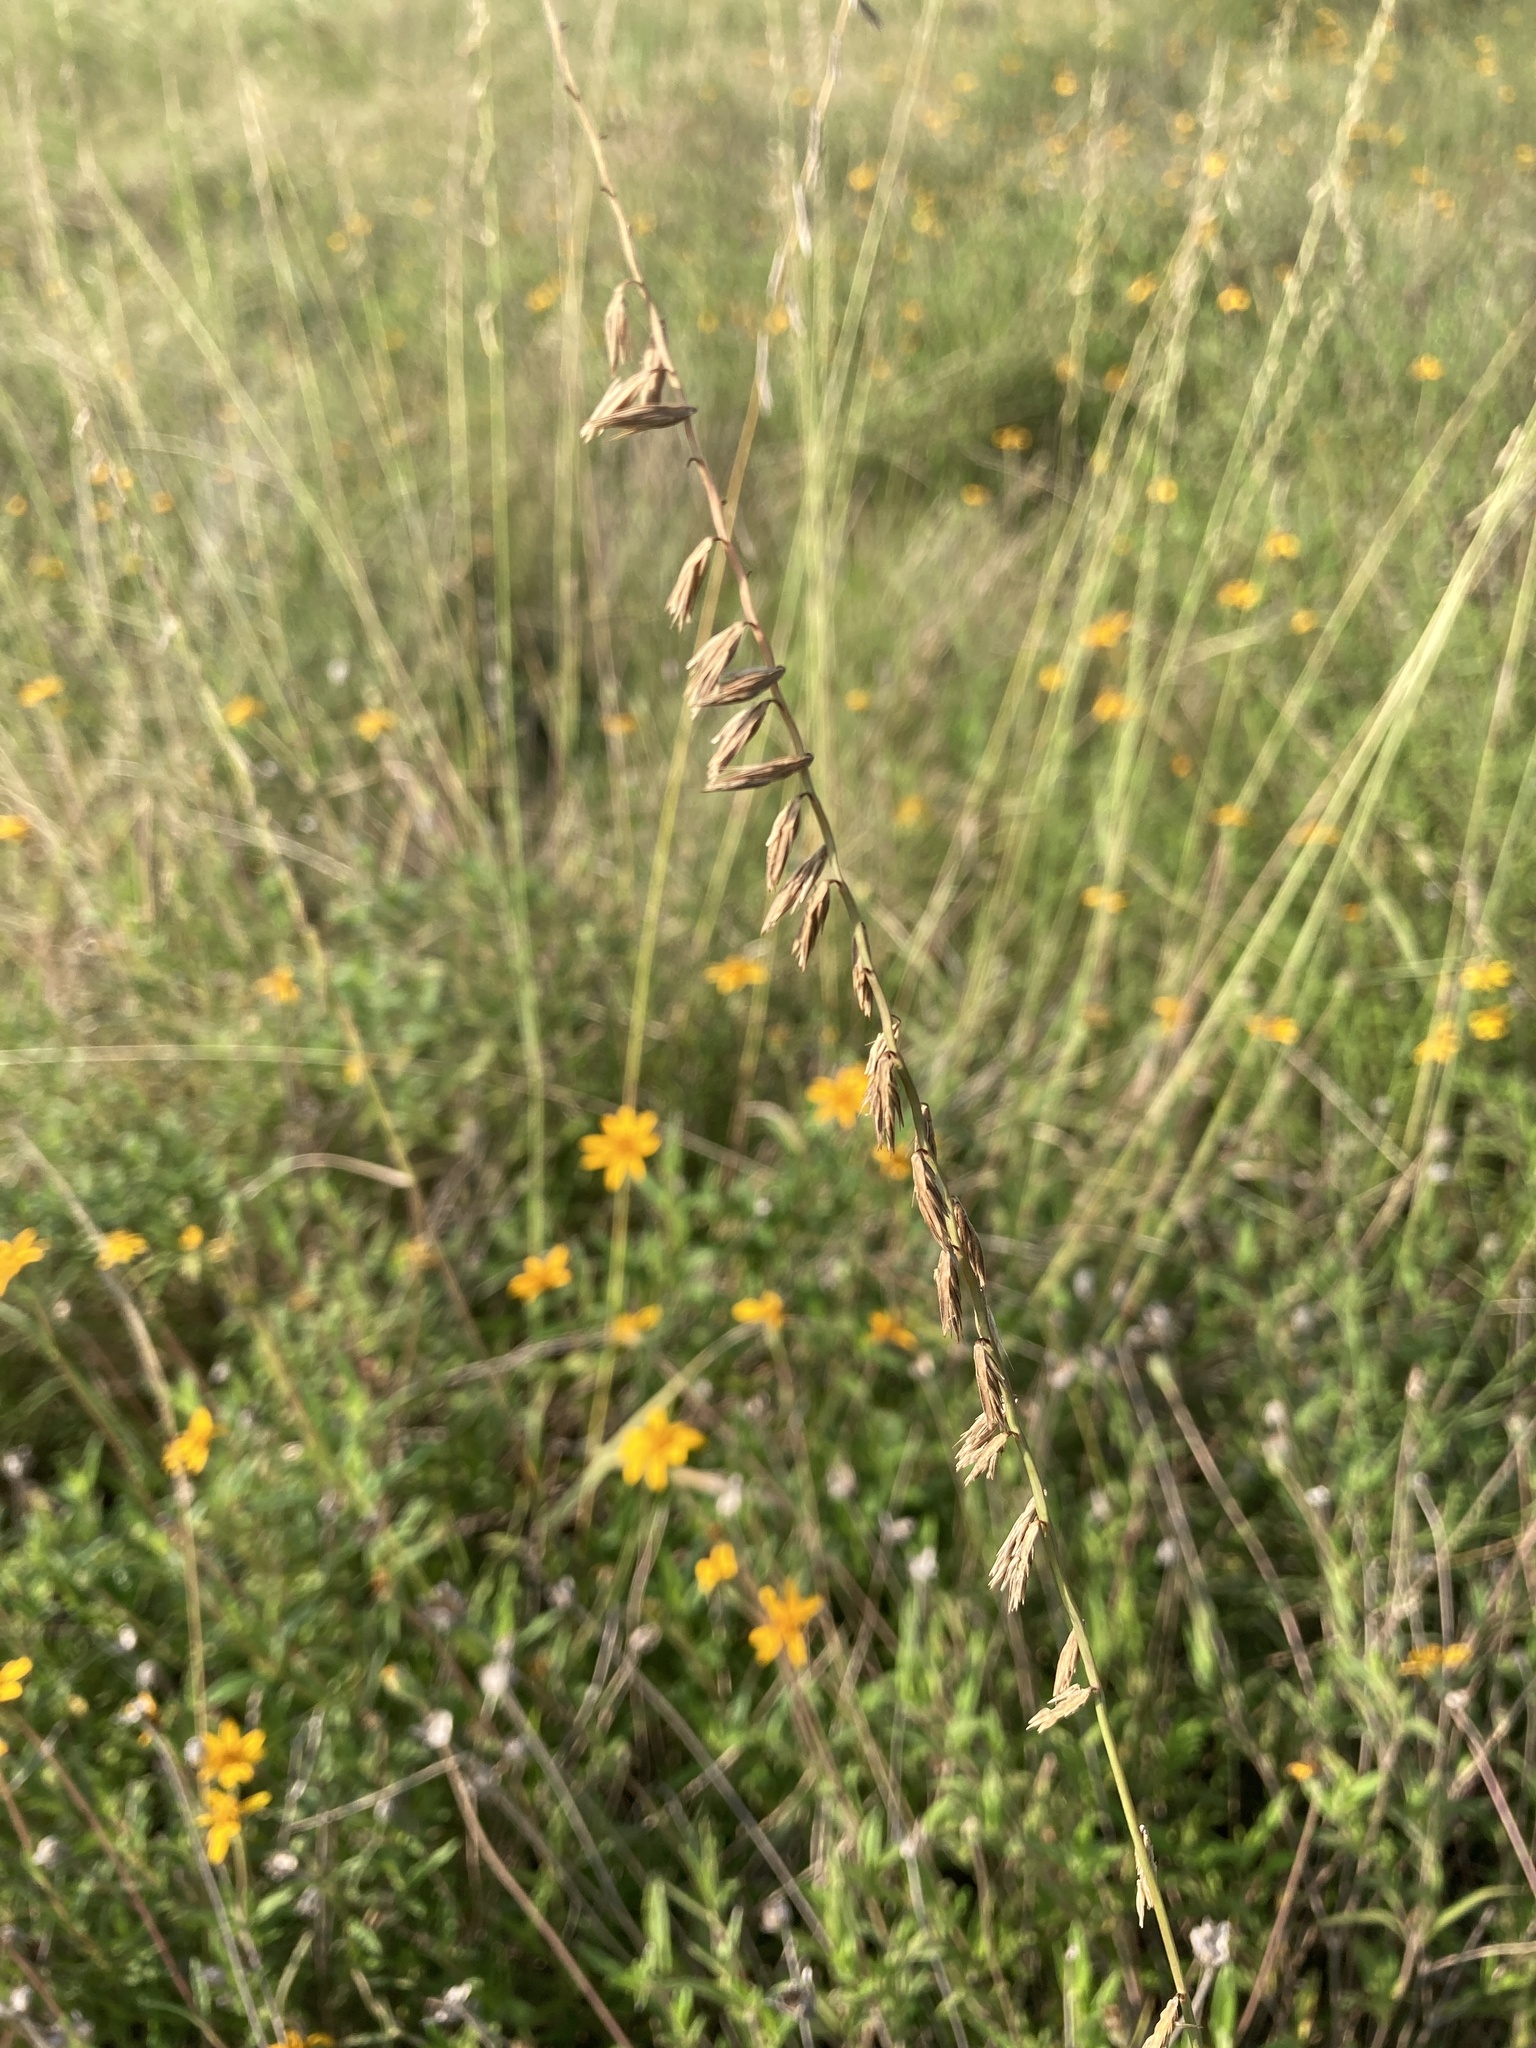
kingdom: Plantae
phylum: Tracheophyta
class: Liliopsida
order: Poales
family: Poaceae
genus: Bouteloua
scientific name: Bouteloua curtipendula
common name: Side-oats grama
